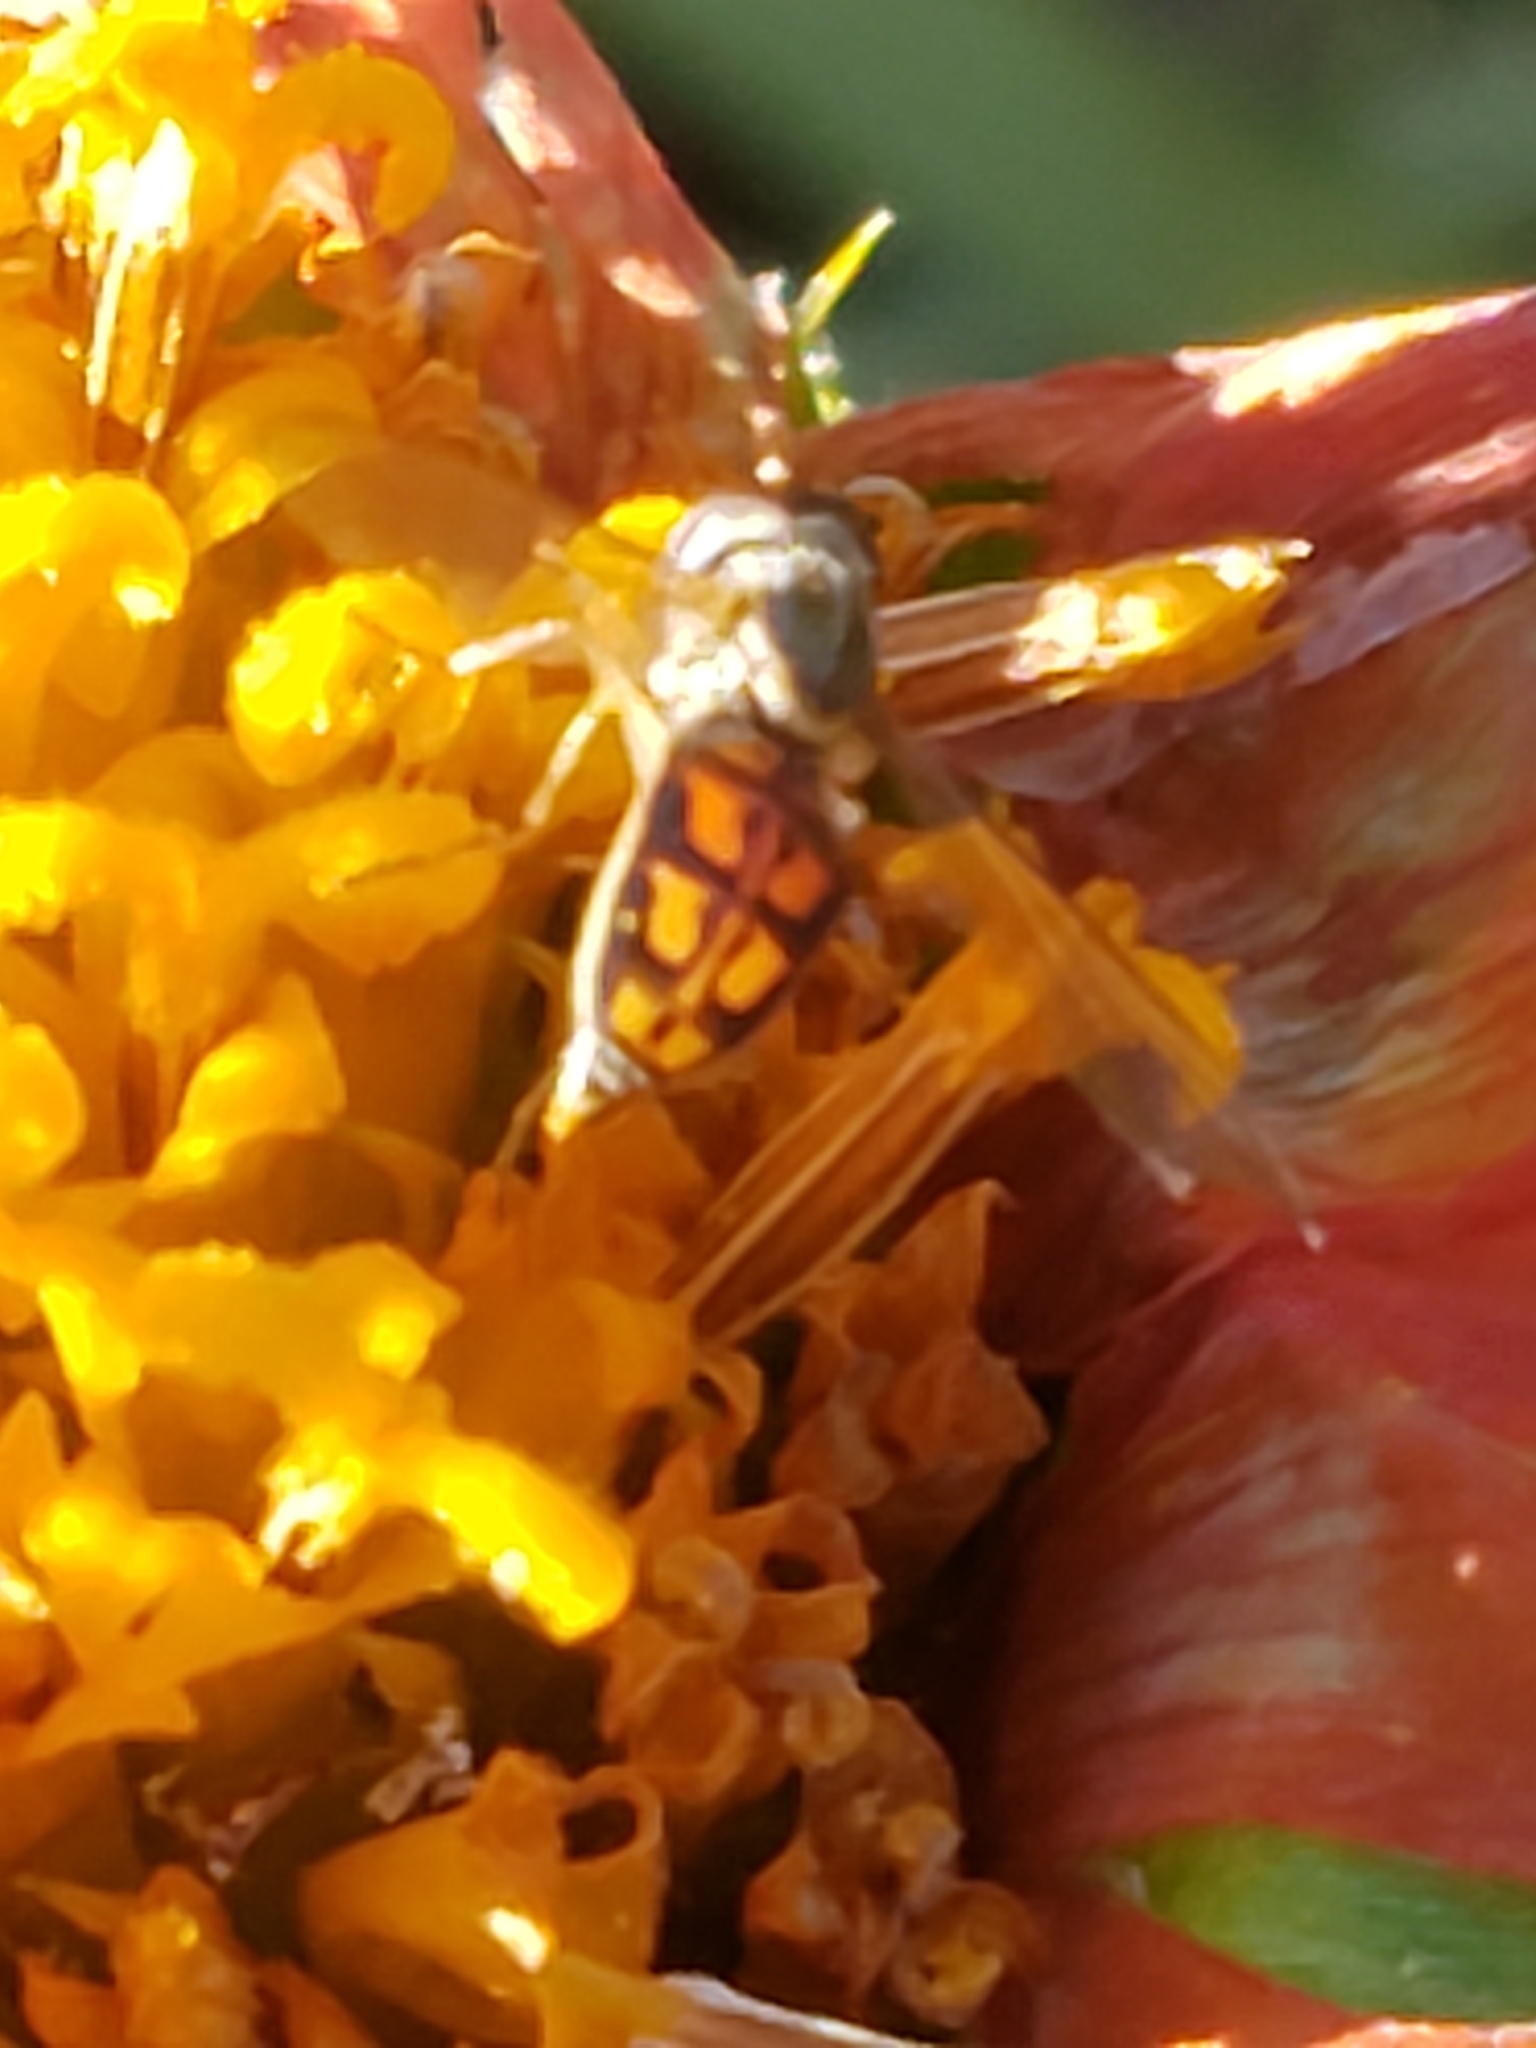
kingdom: Animalia
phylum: Arthropoda
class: Insecta
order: Diptera
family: Syrphidae
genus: Toxomerus
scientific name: Toxomerus marginatus
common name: Syrphid fly
